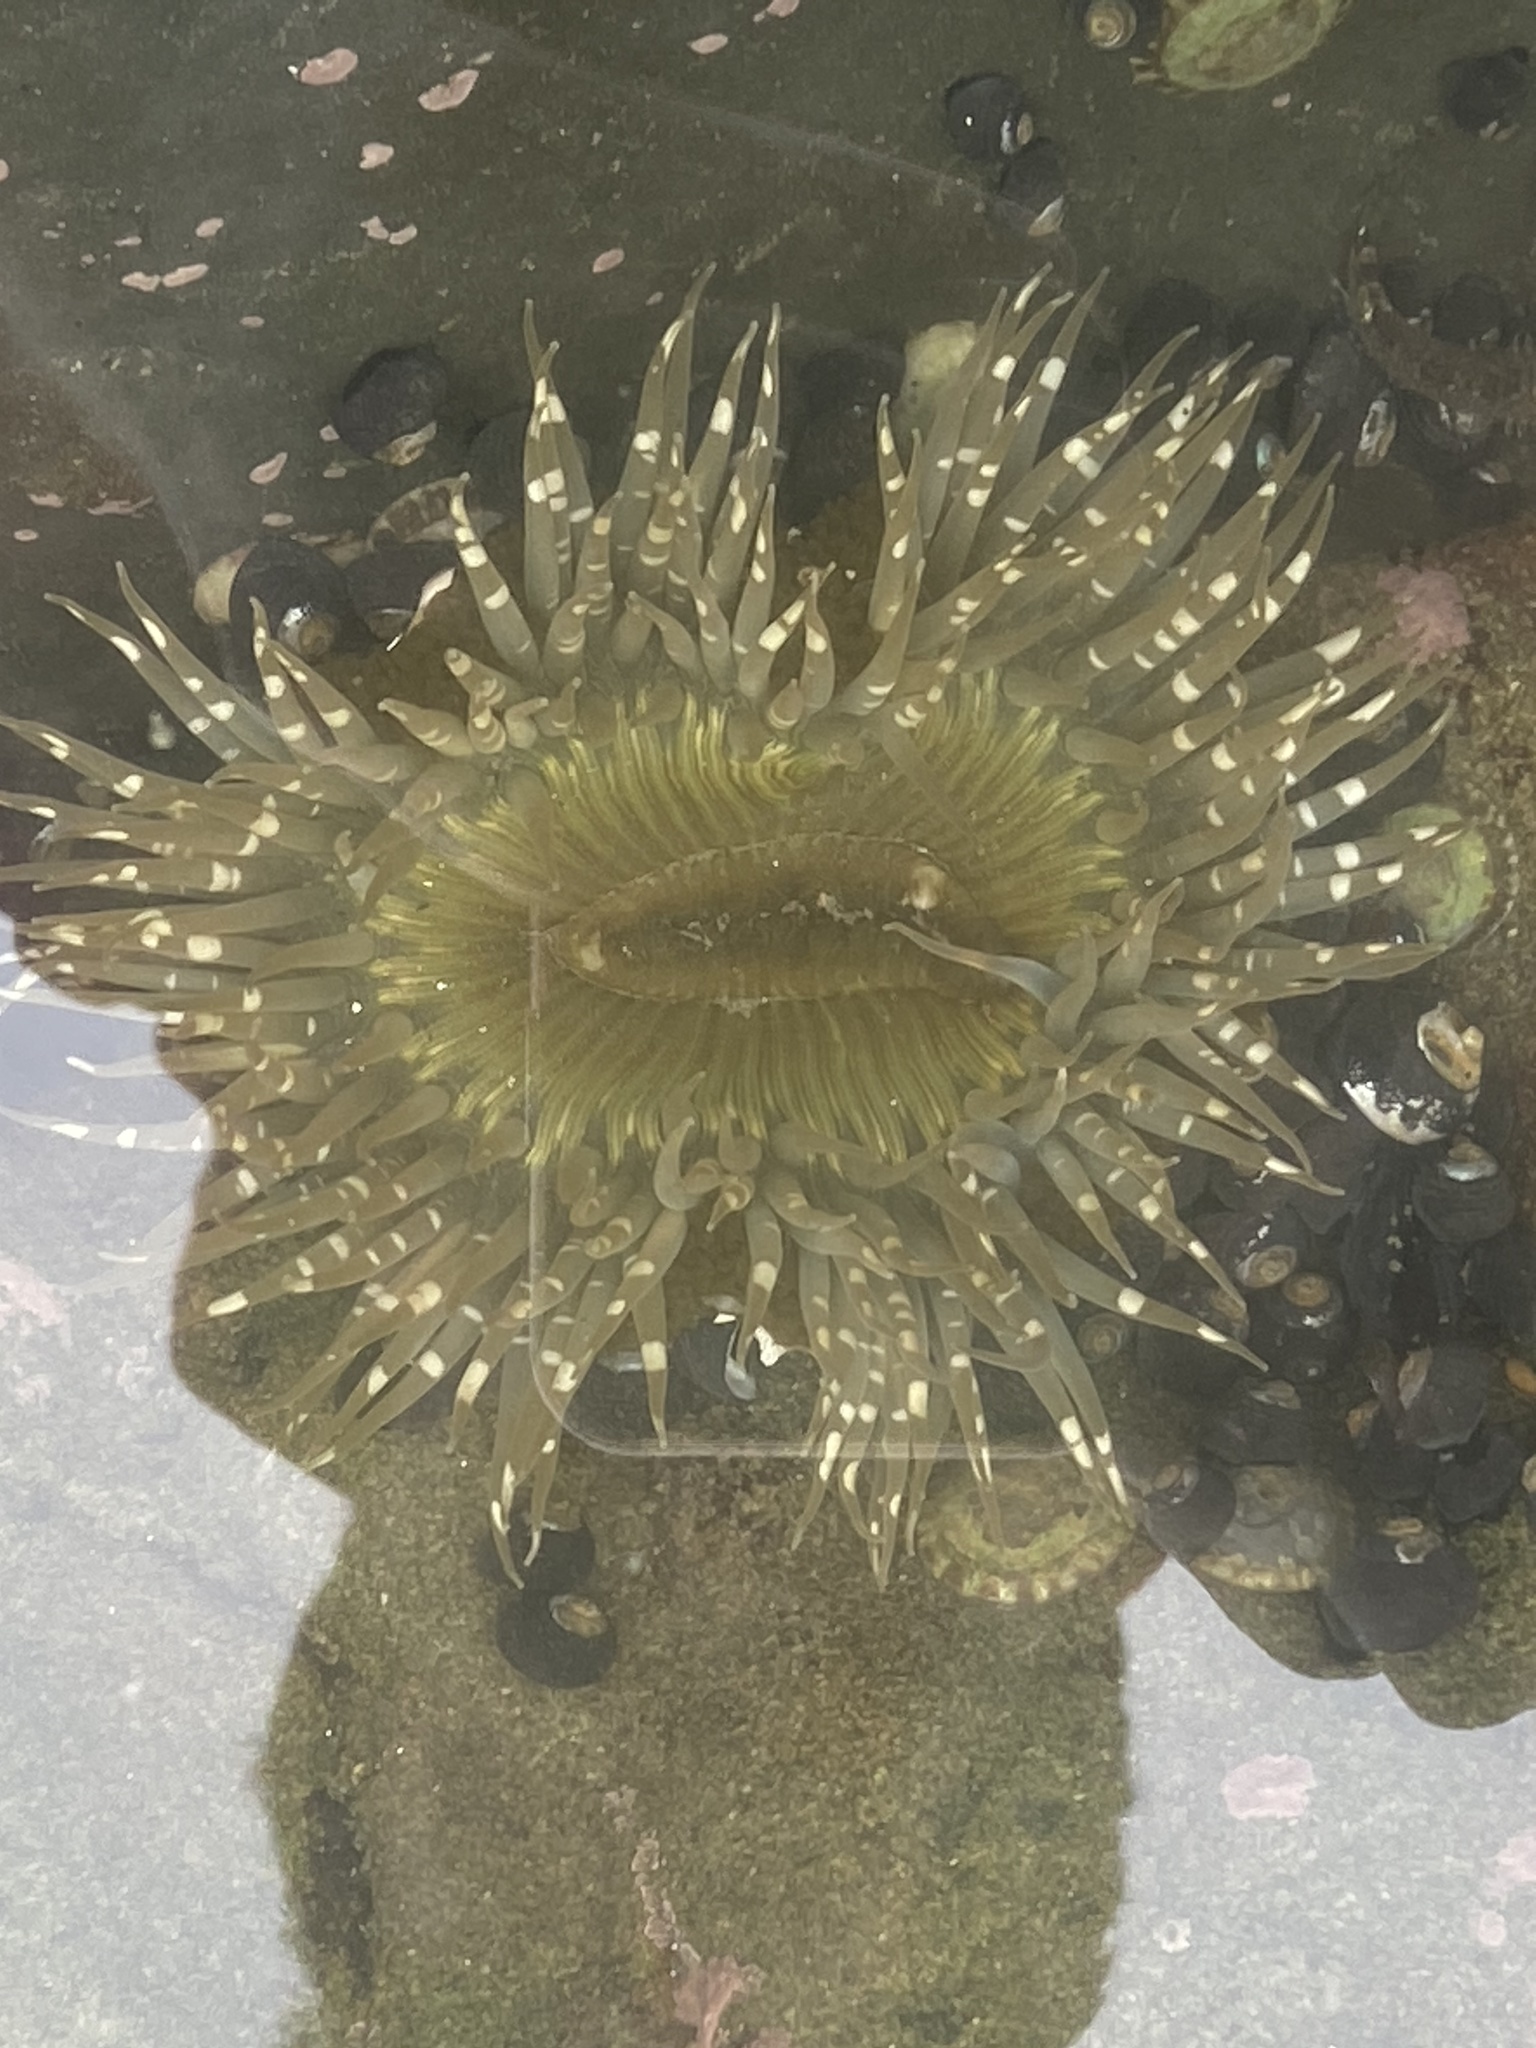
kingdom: Animalia
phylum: Cnidaria
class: Anthozoa
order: Actiniaria
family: Actiniidae
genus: Anthopleura
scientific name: Anthopleura sola
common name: Sun anemone
